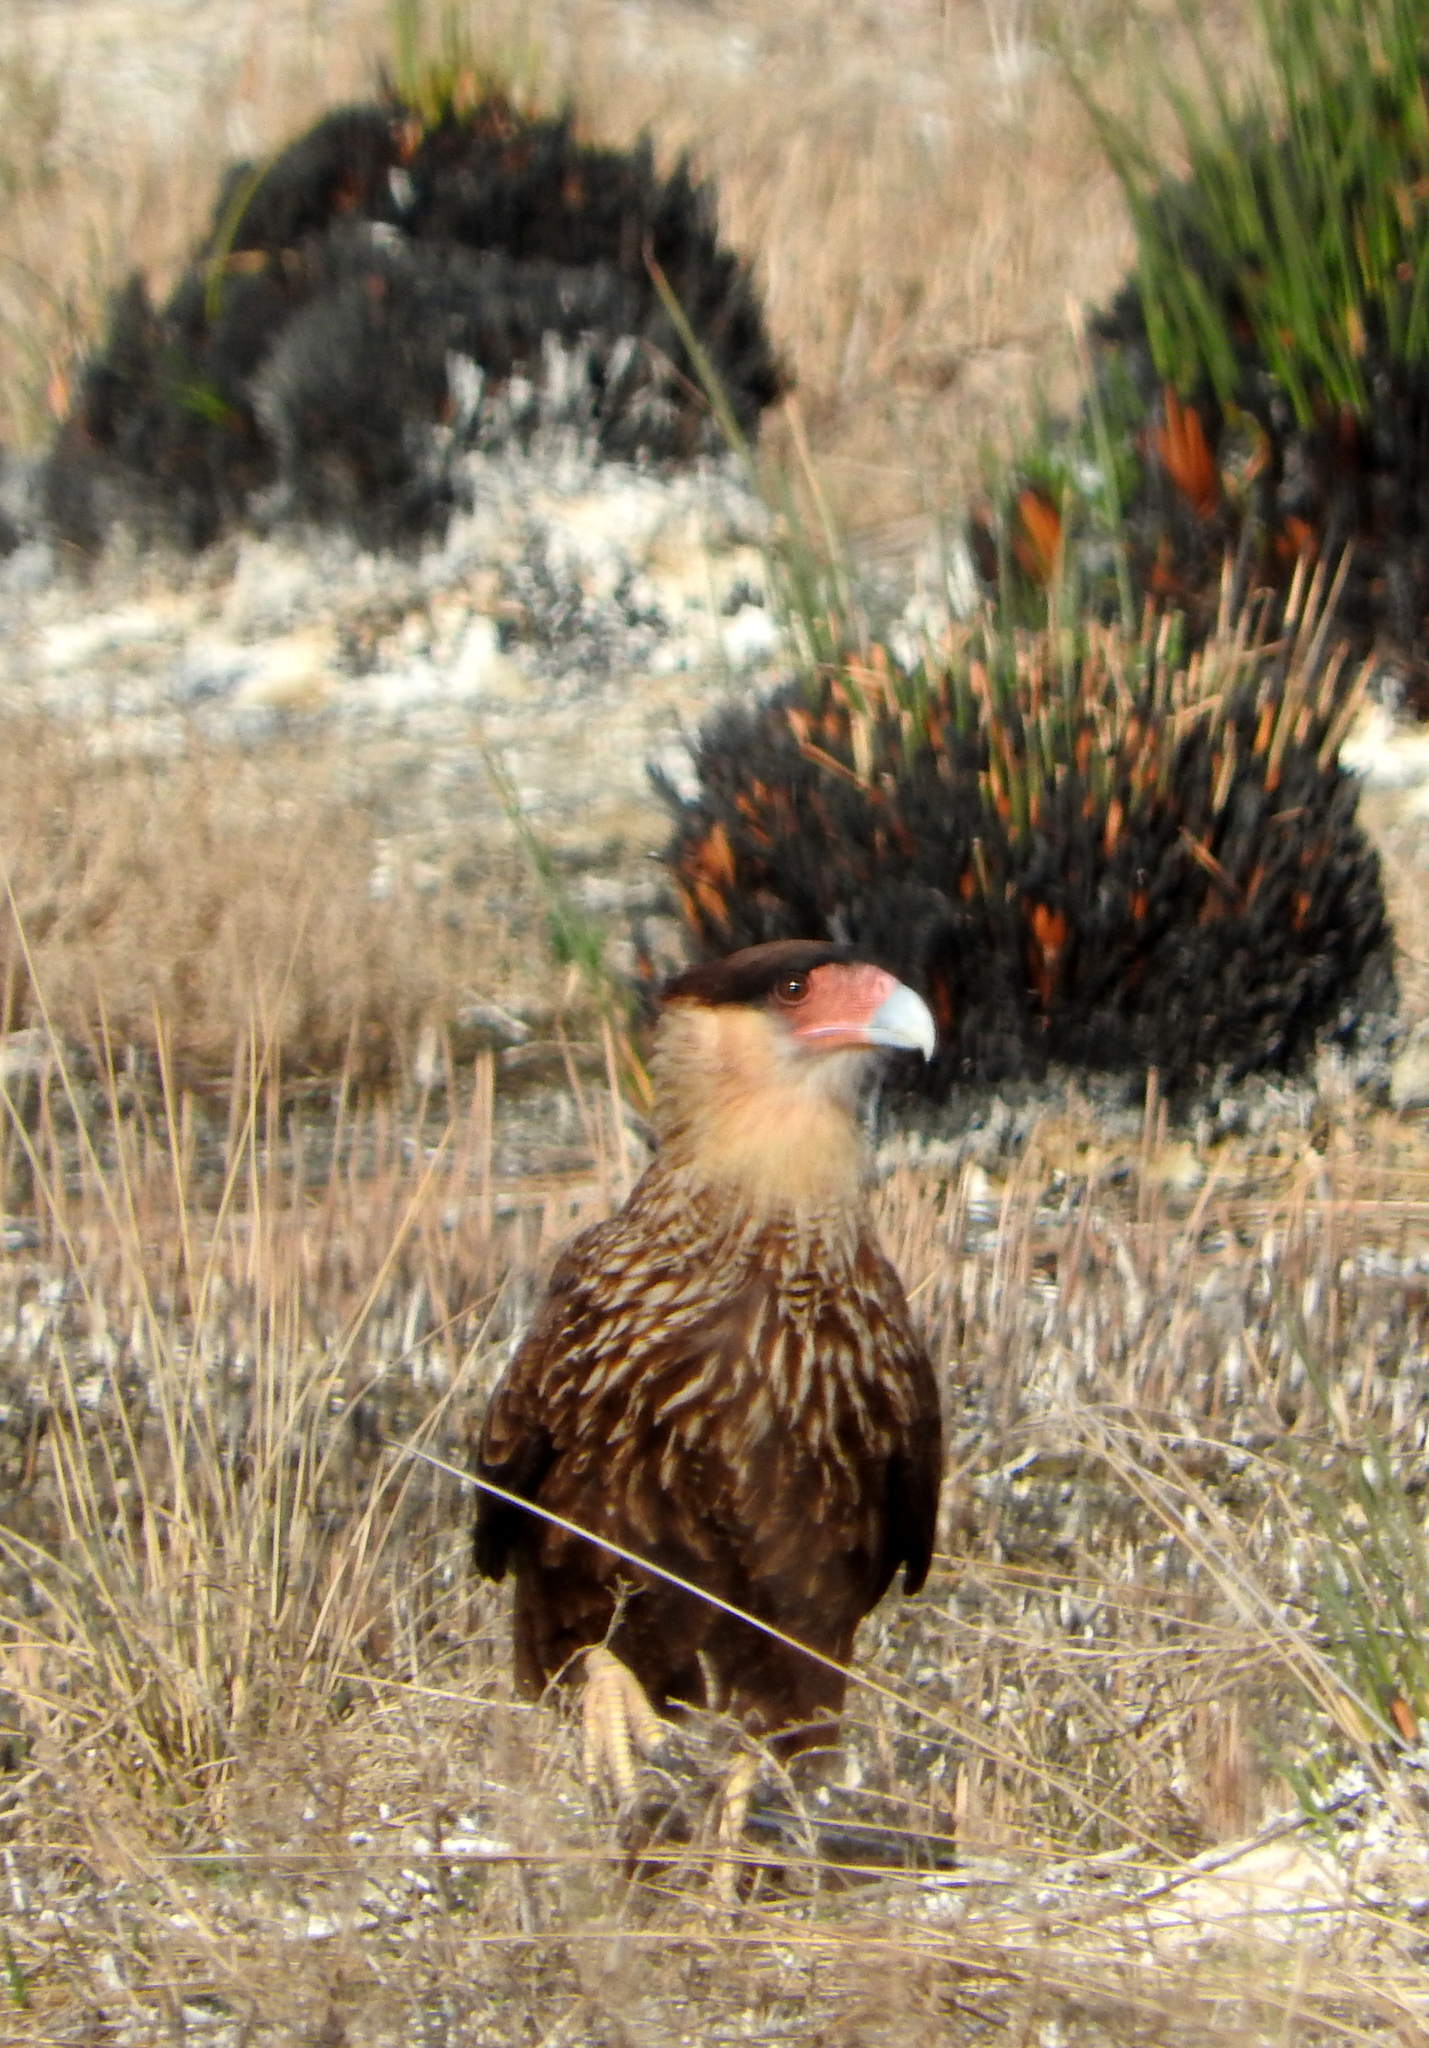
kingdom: Animalia
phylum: Chordata
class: Aves
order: Falconiformes
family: Falconidae
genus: Caracara
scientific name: Caracara plancus
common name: Southern caracara
